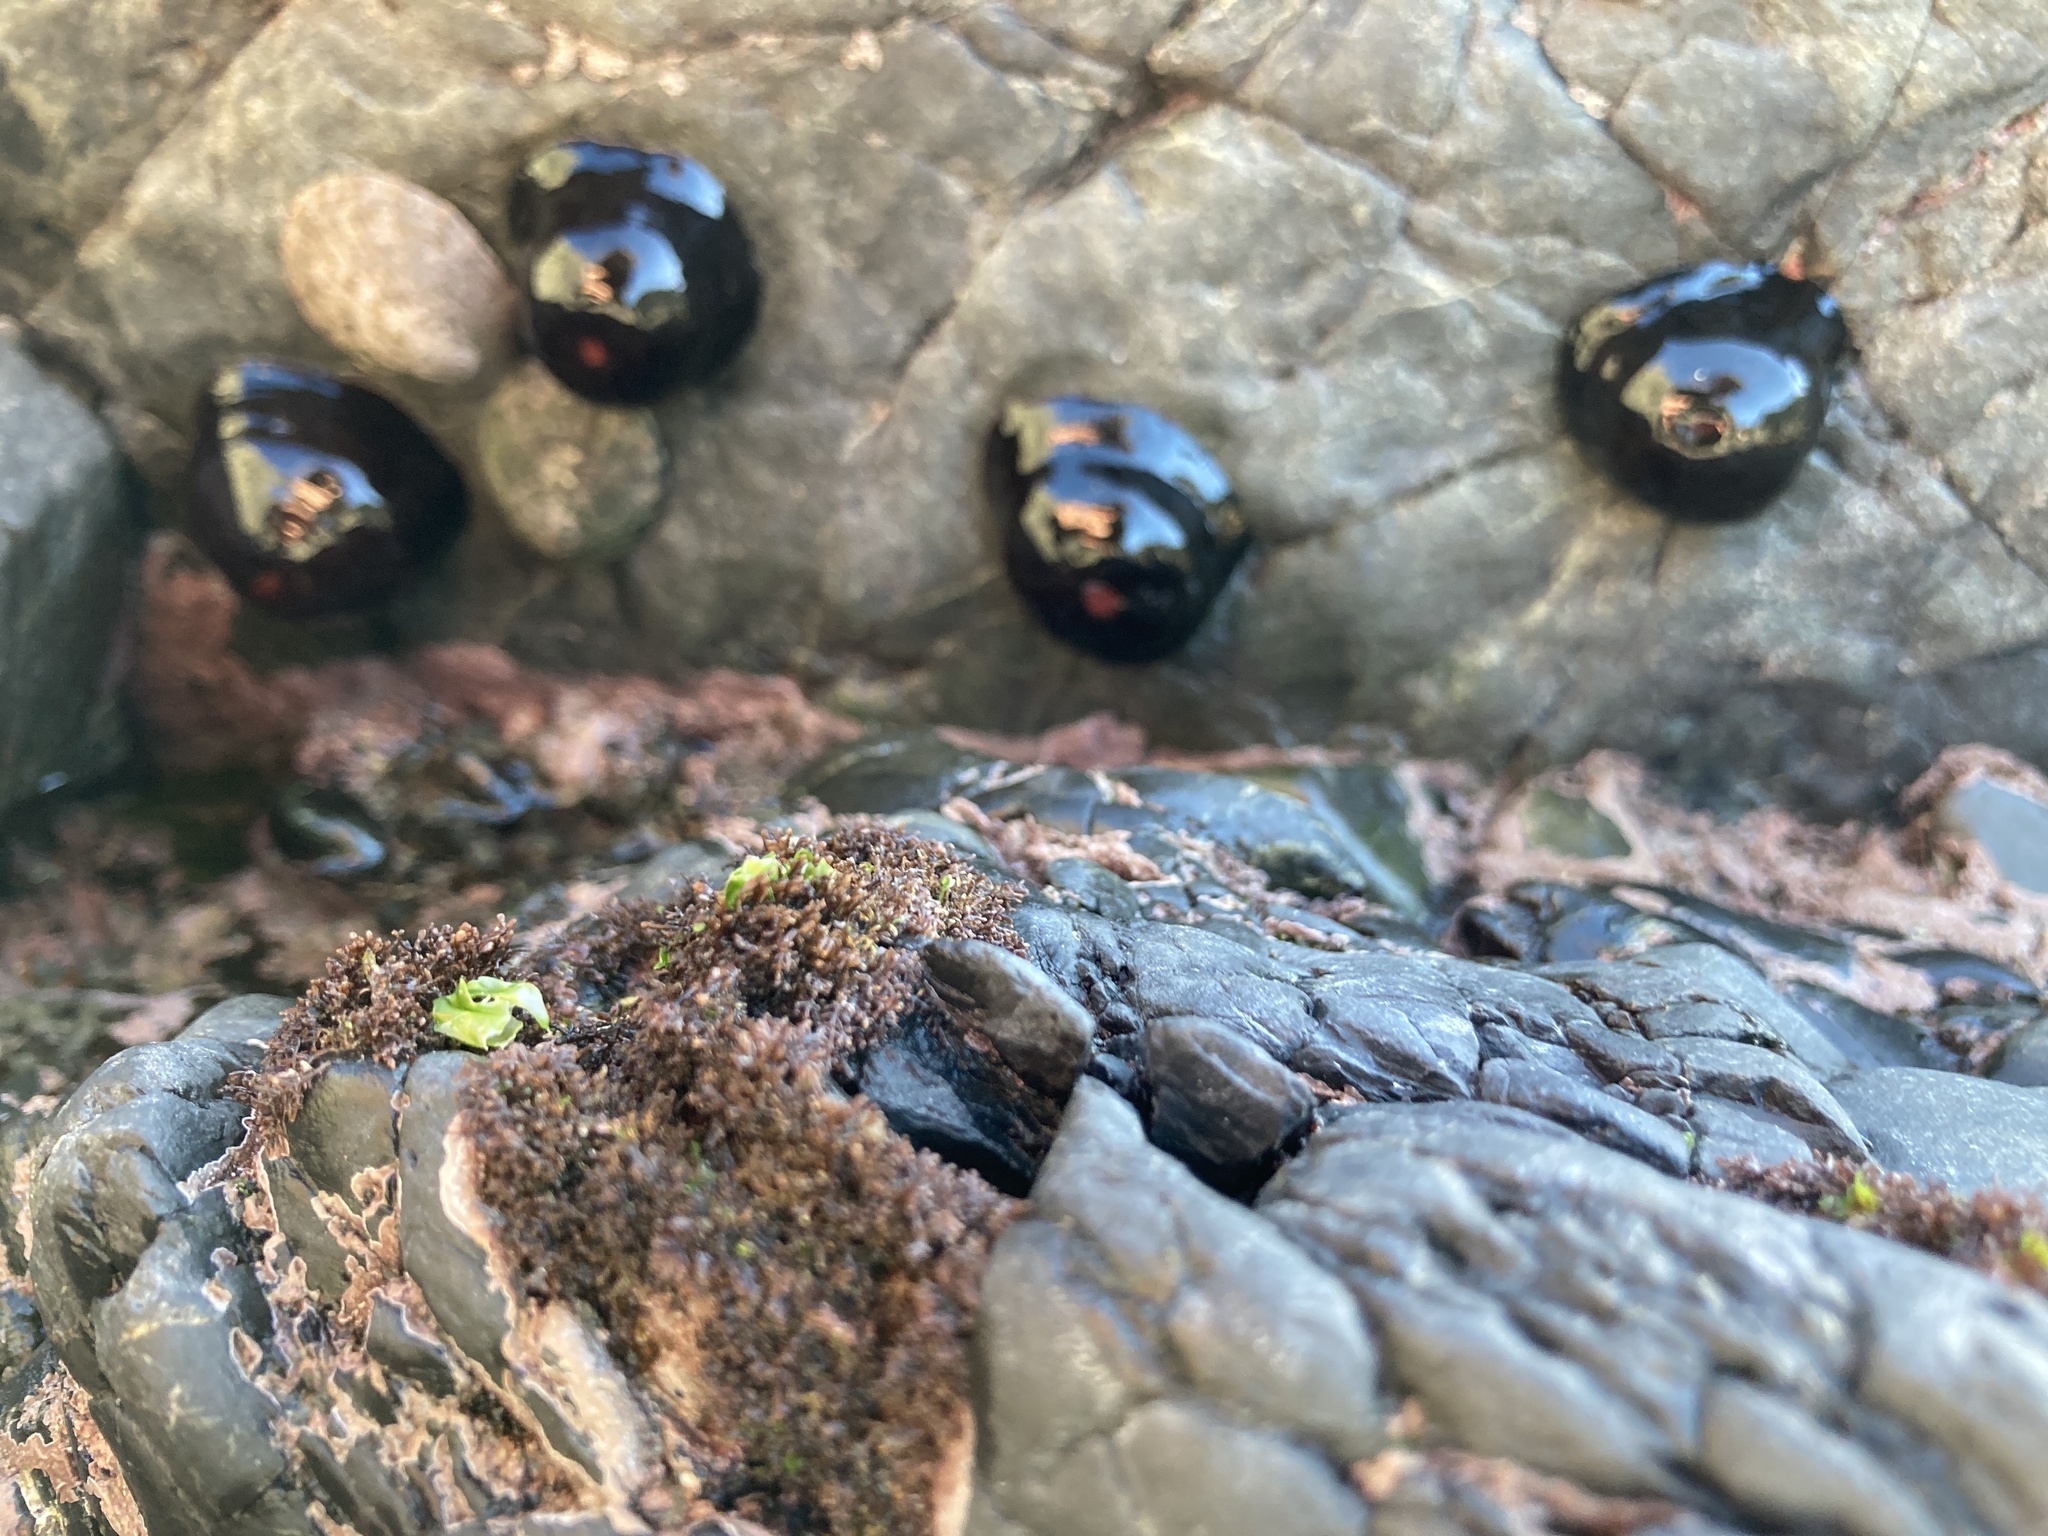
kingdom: Animalia
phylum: Cnidaria
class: Anthozoa
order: Actiniaria
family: Actiniidae
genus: Actinia
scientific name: Actinia tenebrosa
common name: Waratah anemone
